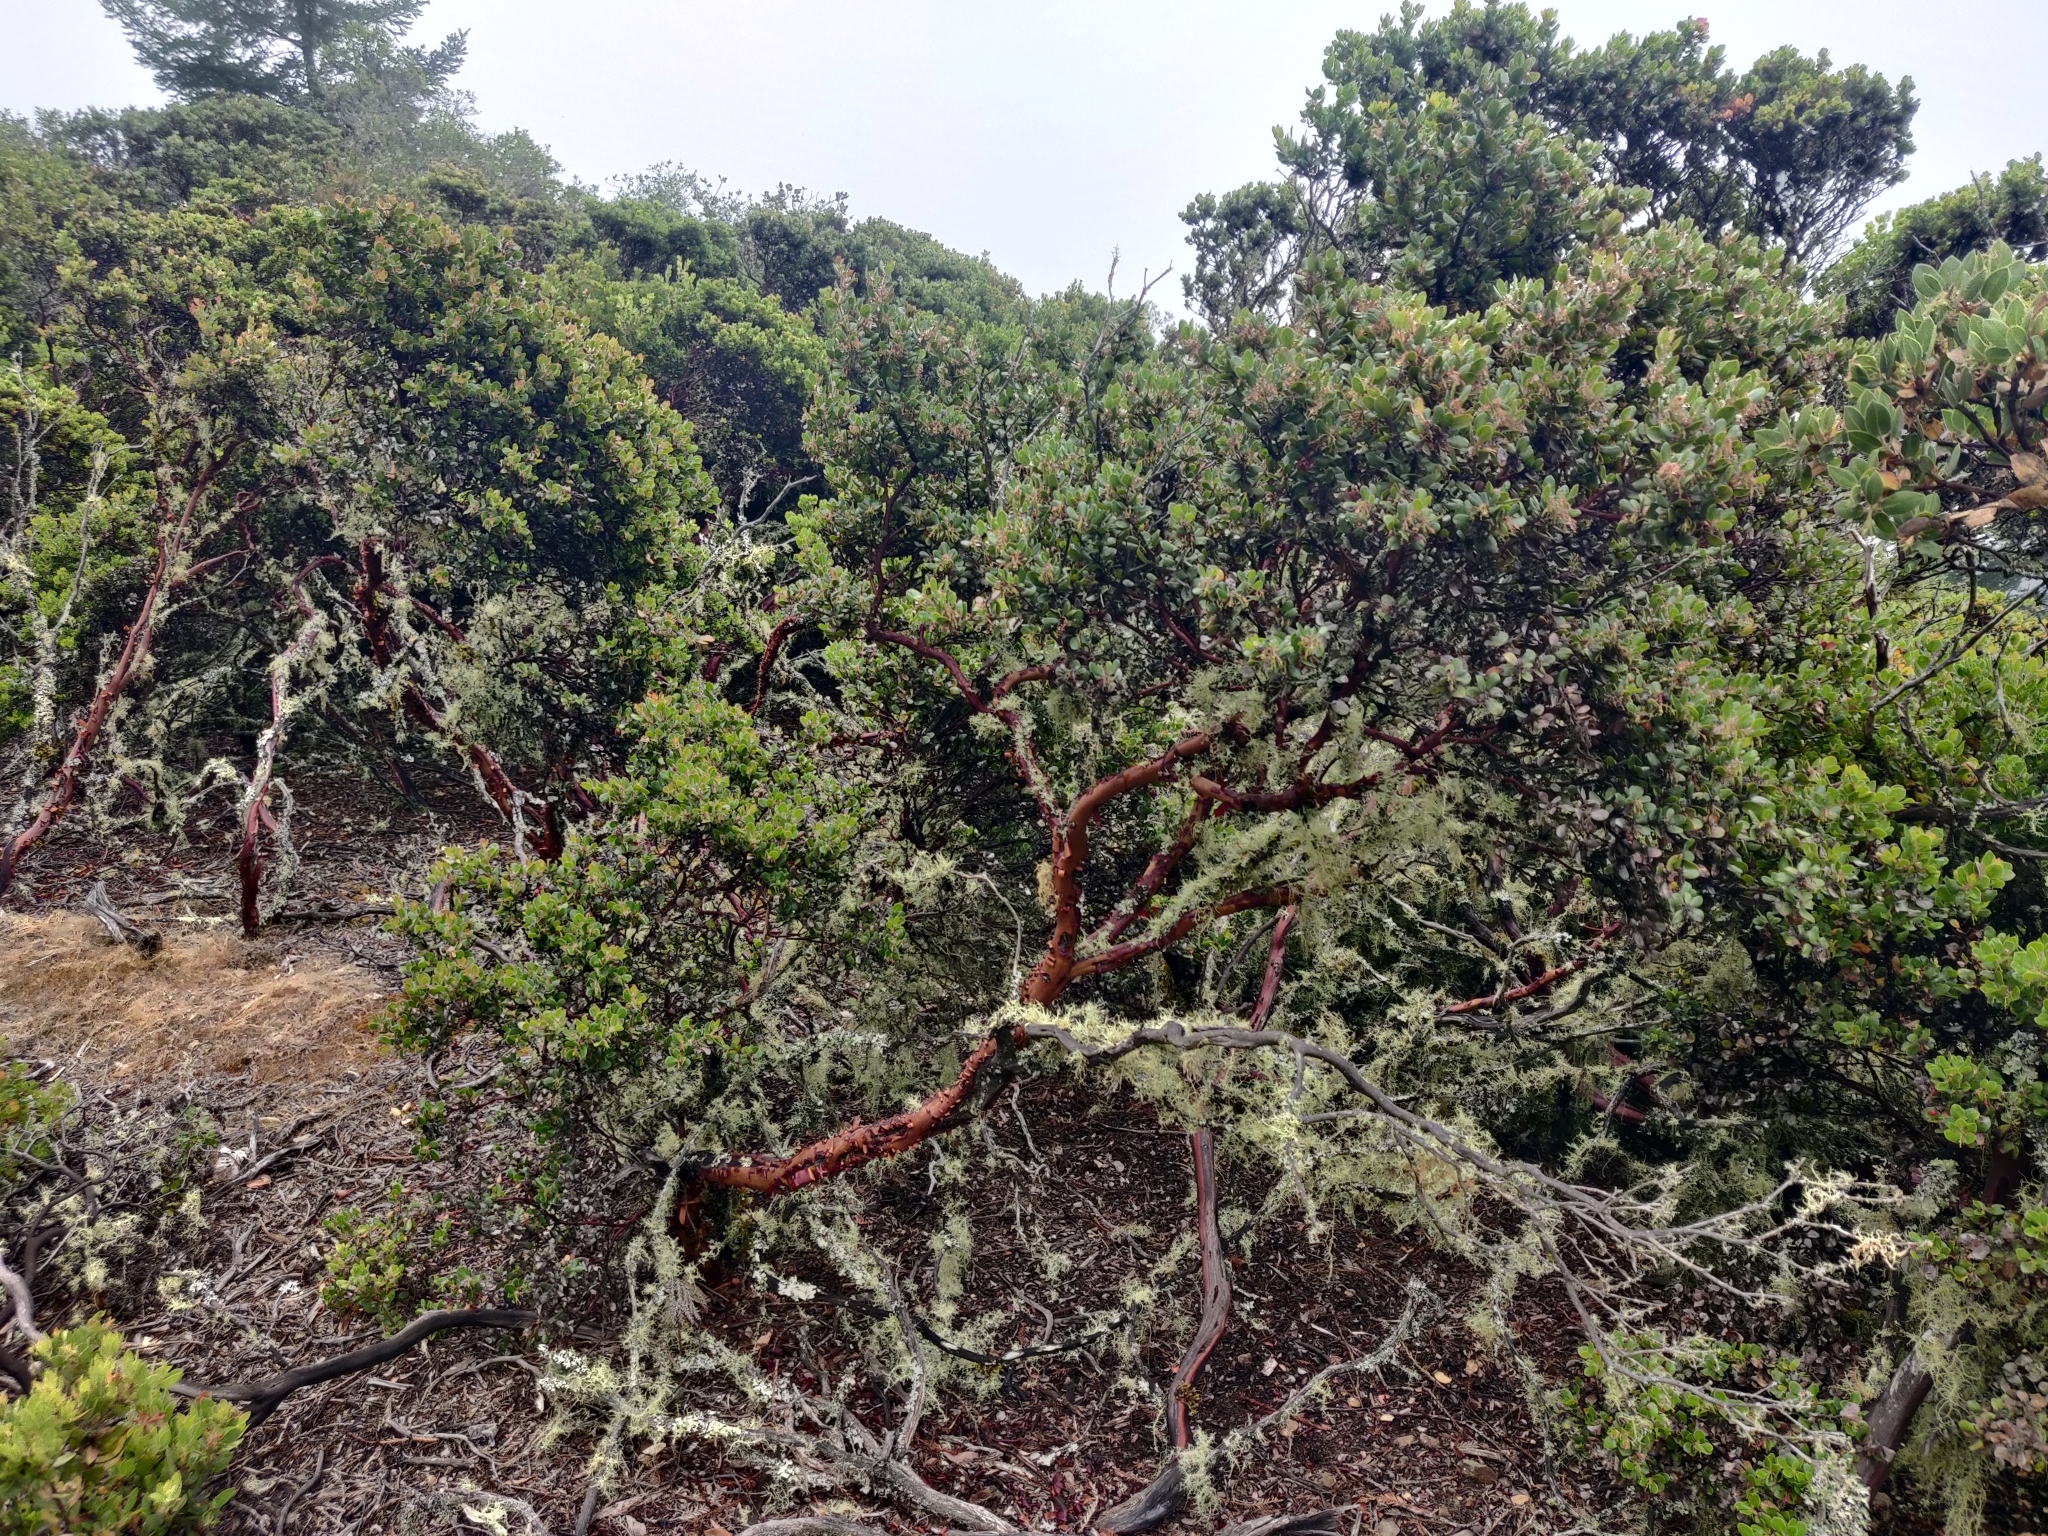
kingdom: Plantae
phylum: Tracheophyta
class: Magnoliopsida
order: Ericales
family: Ericaceae
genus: Arctostaphylos
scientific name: Arctostaphylos nummularia
